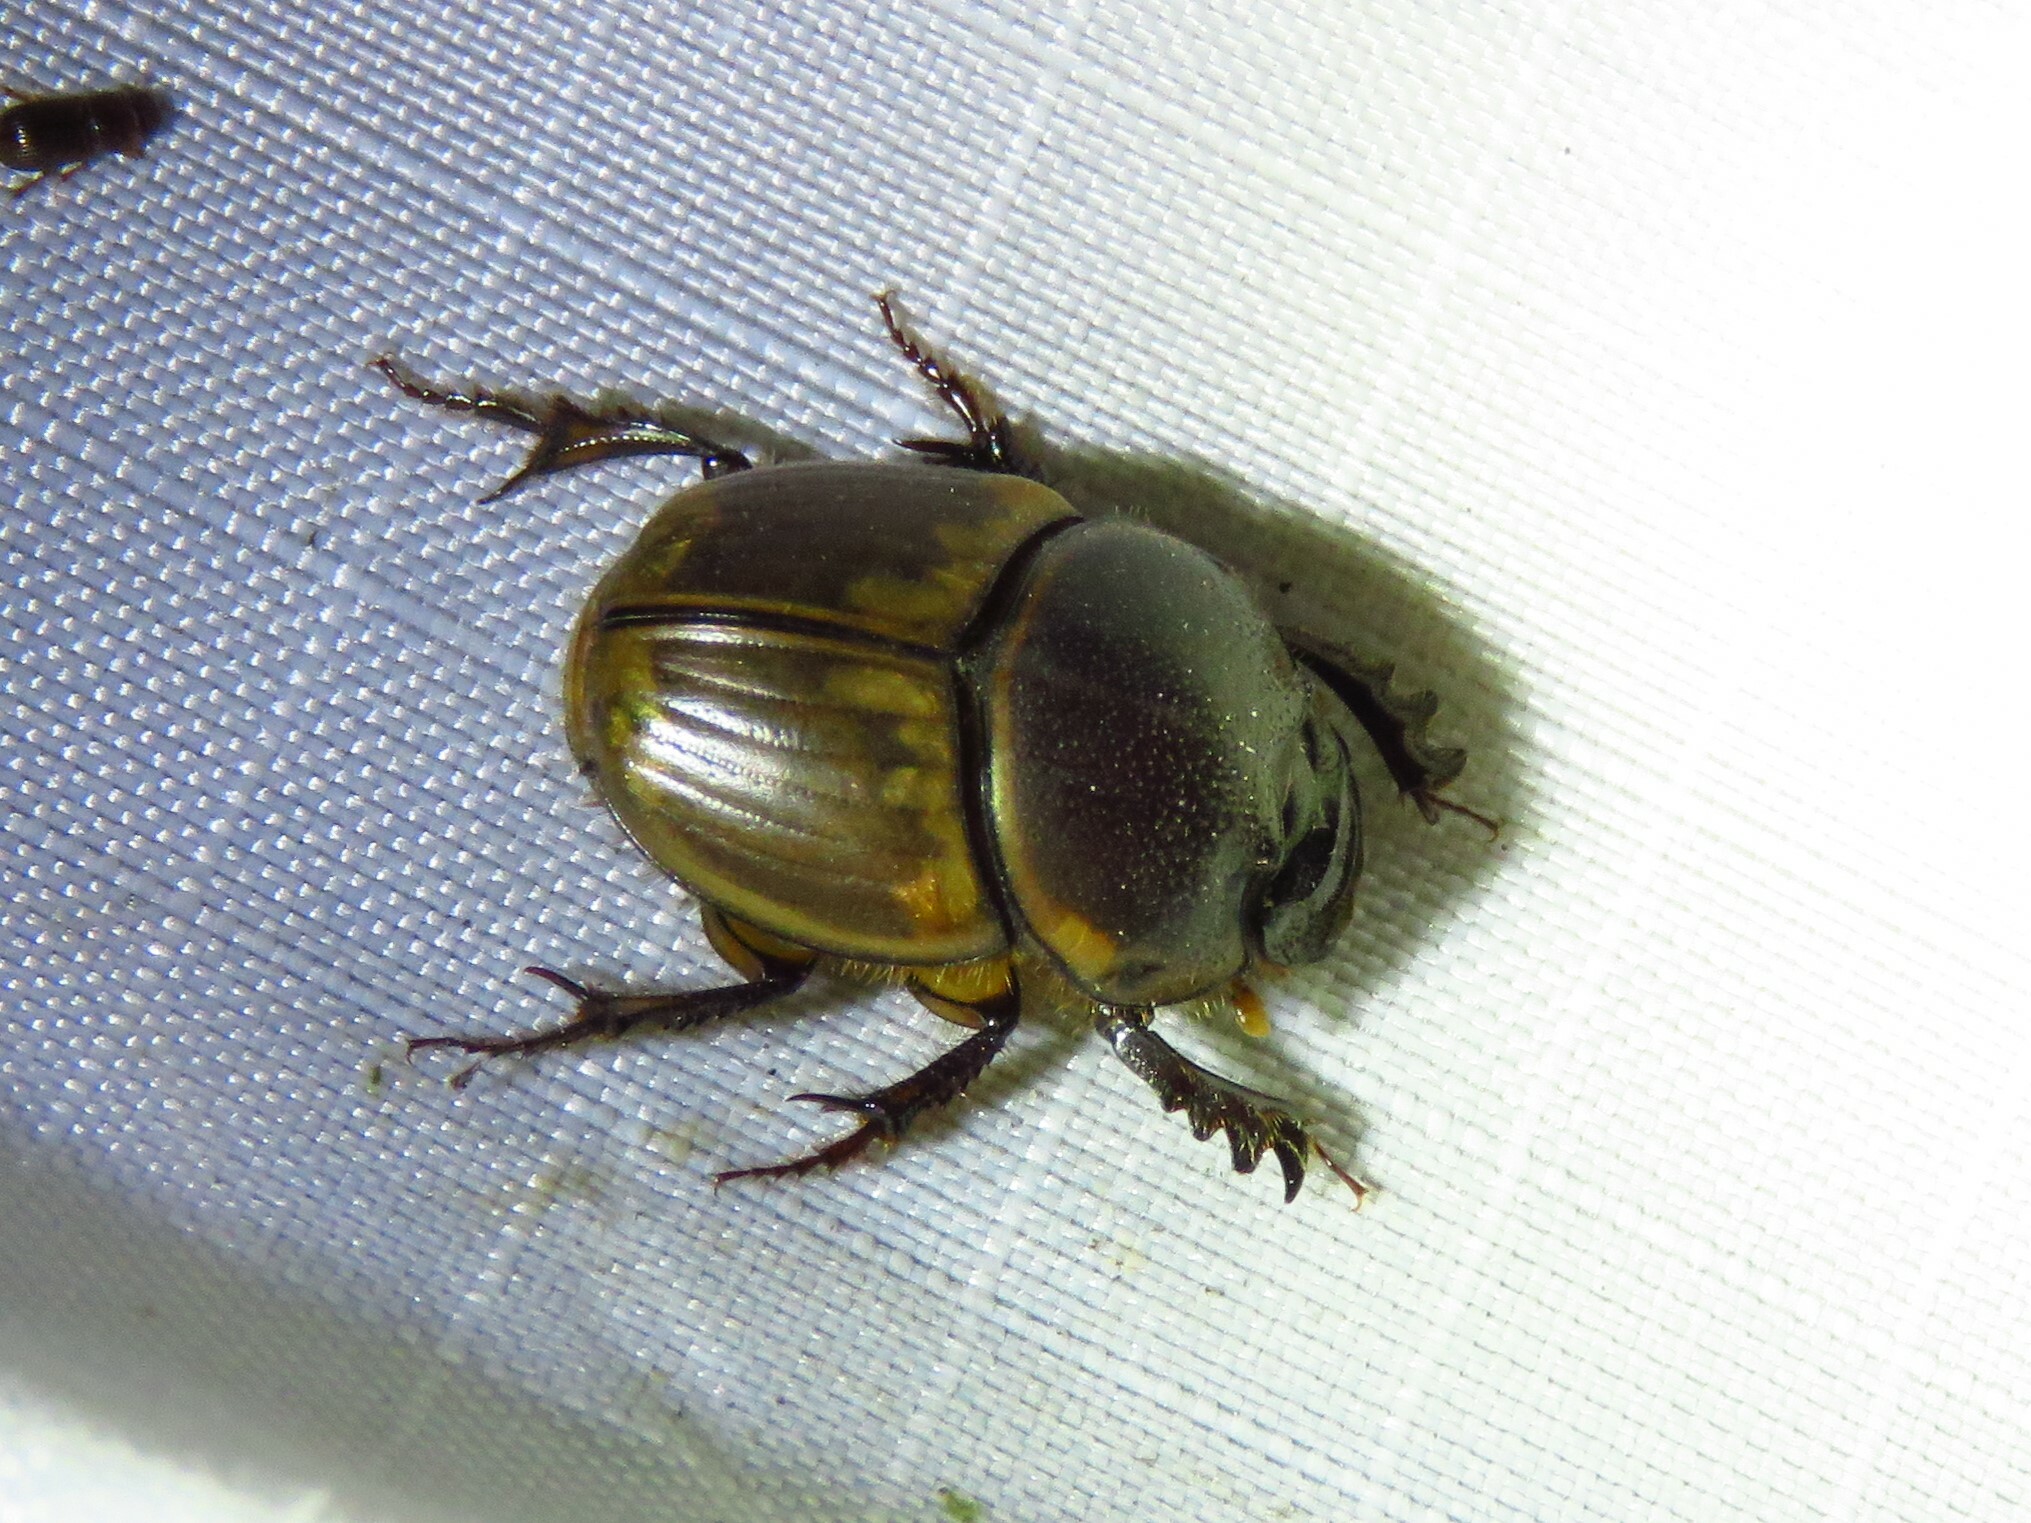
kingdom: Animalia
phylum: Arthropoda
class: Insecta
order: Coleoptera
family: Scarabaeidae
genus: Digitonthophagus
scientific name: Digitonthophagus gazella
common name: Brown dung beetle
